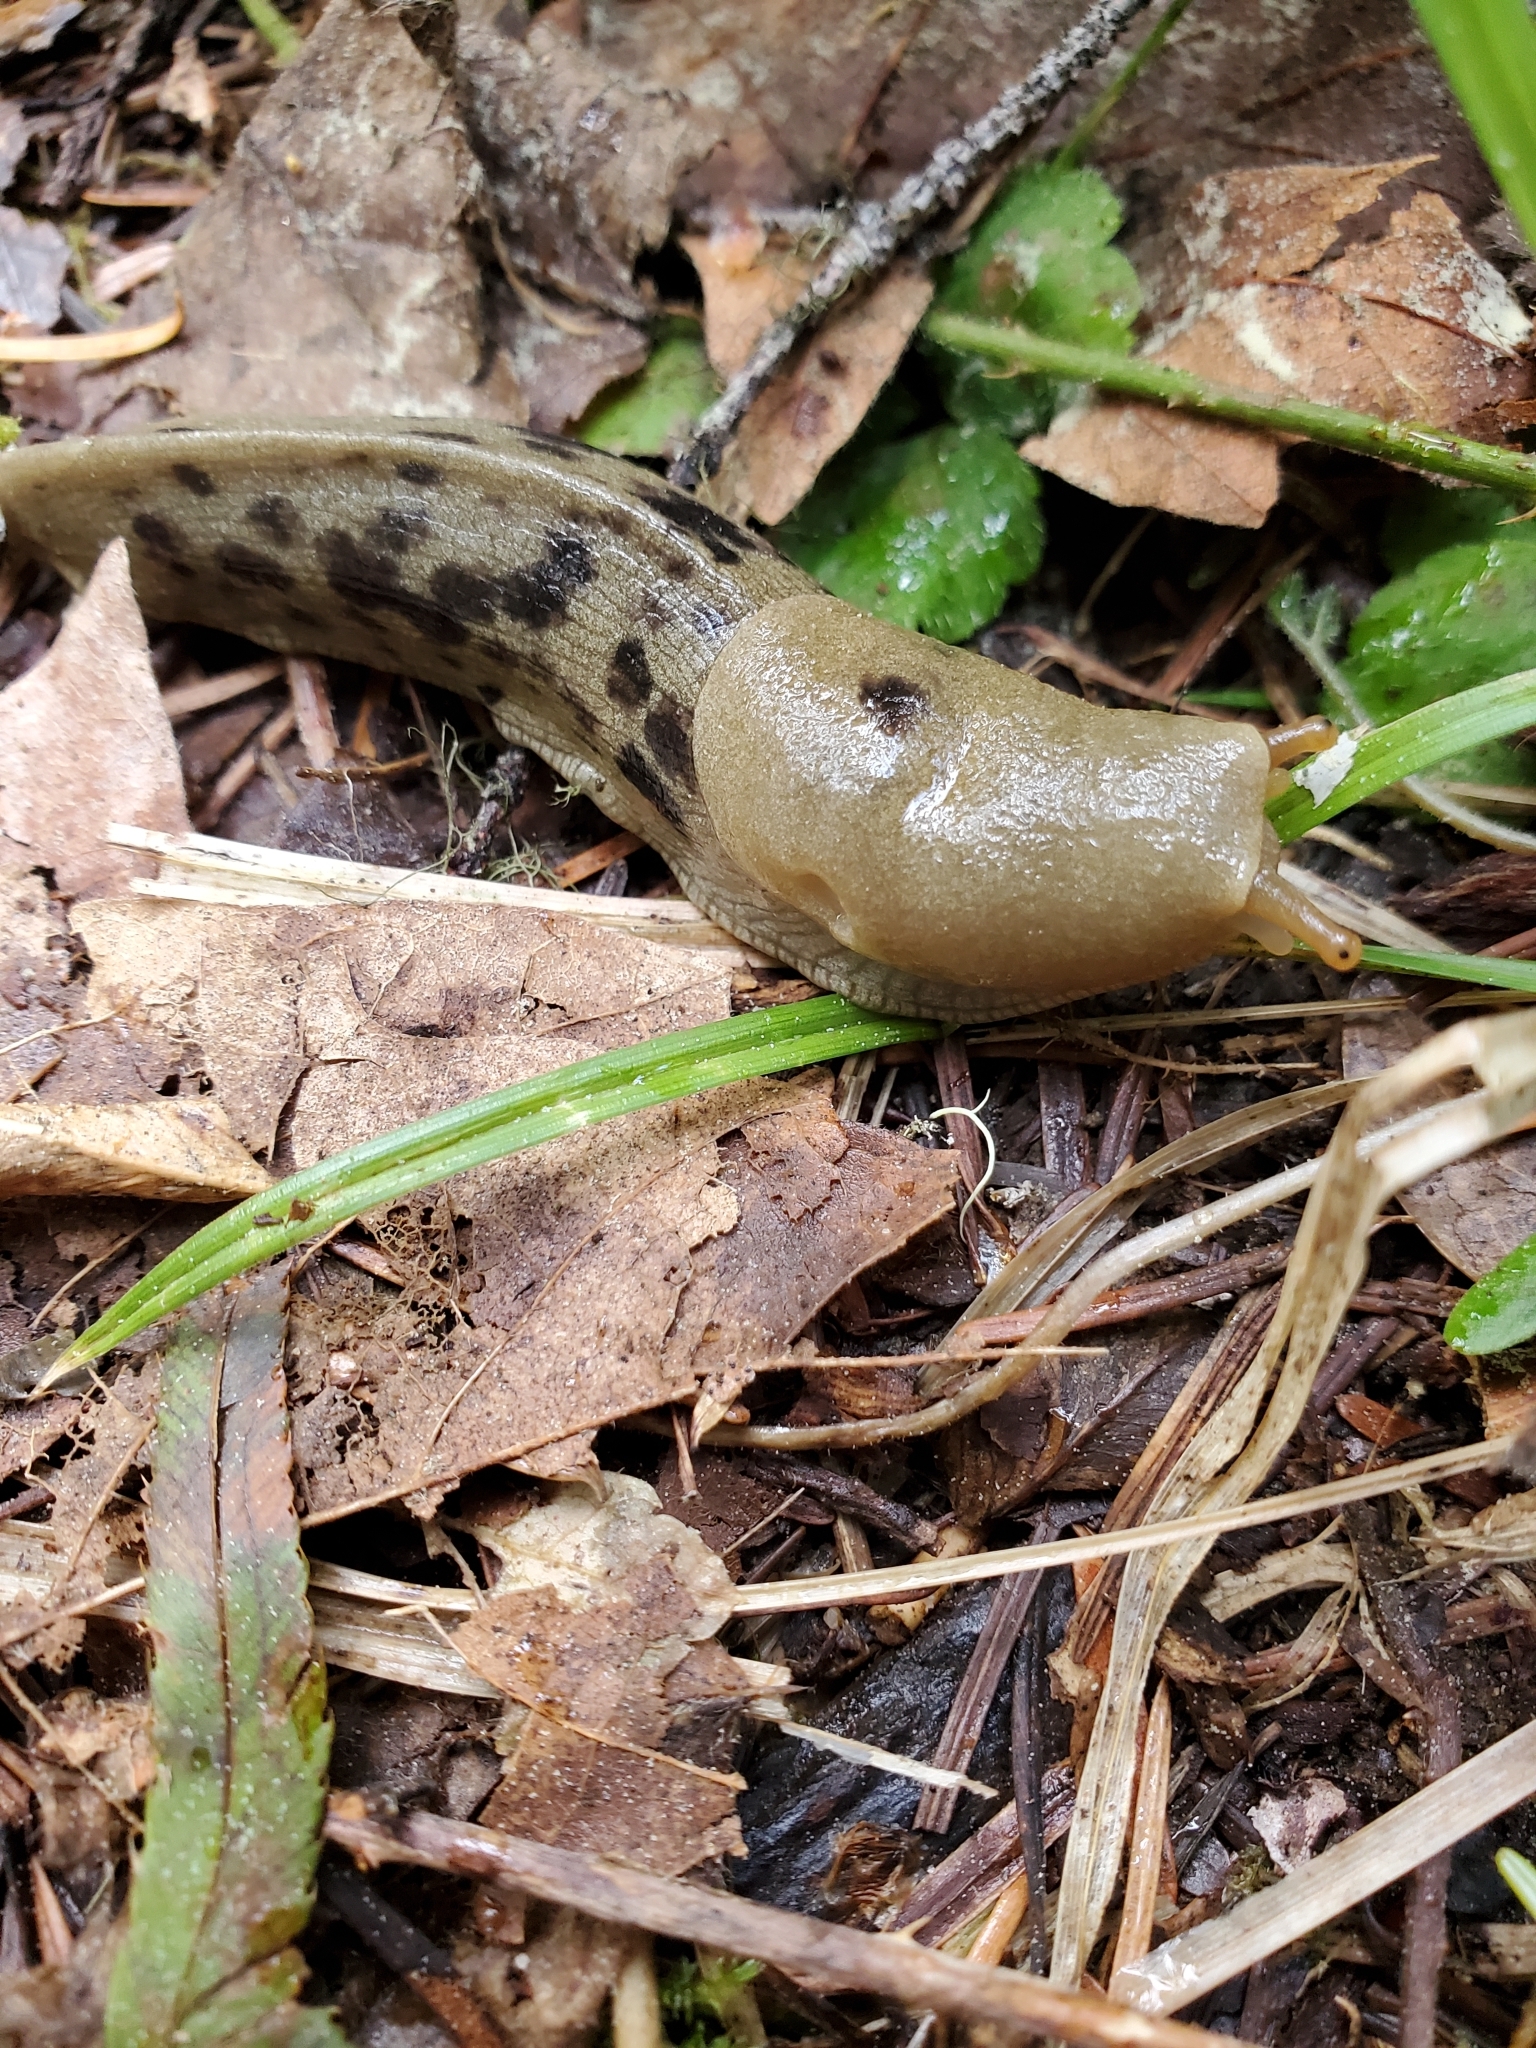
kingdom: Animalia
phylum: Mollusca
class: Gastropoda
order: Stylommatophora
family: Ariolimacidae
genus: Ariolimax
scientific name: Ariolimax columbianus
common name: Pacific banana slug
